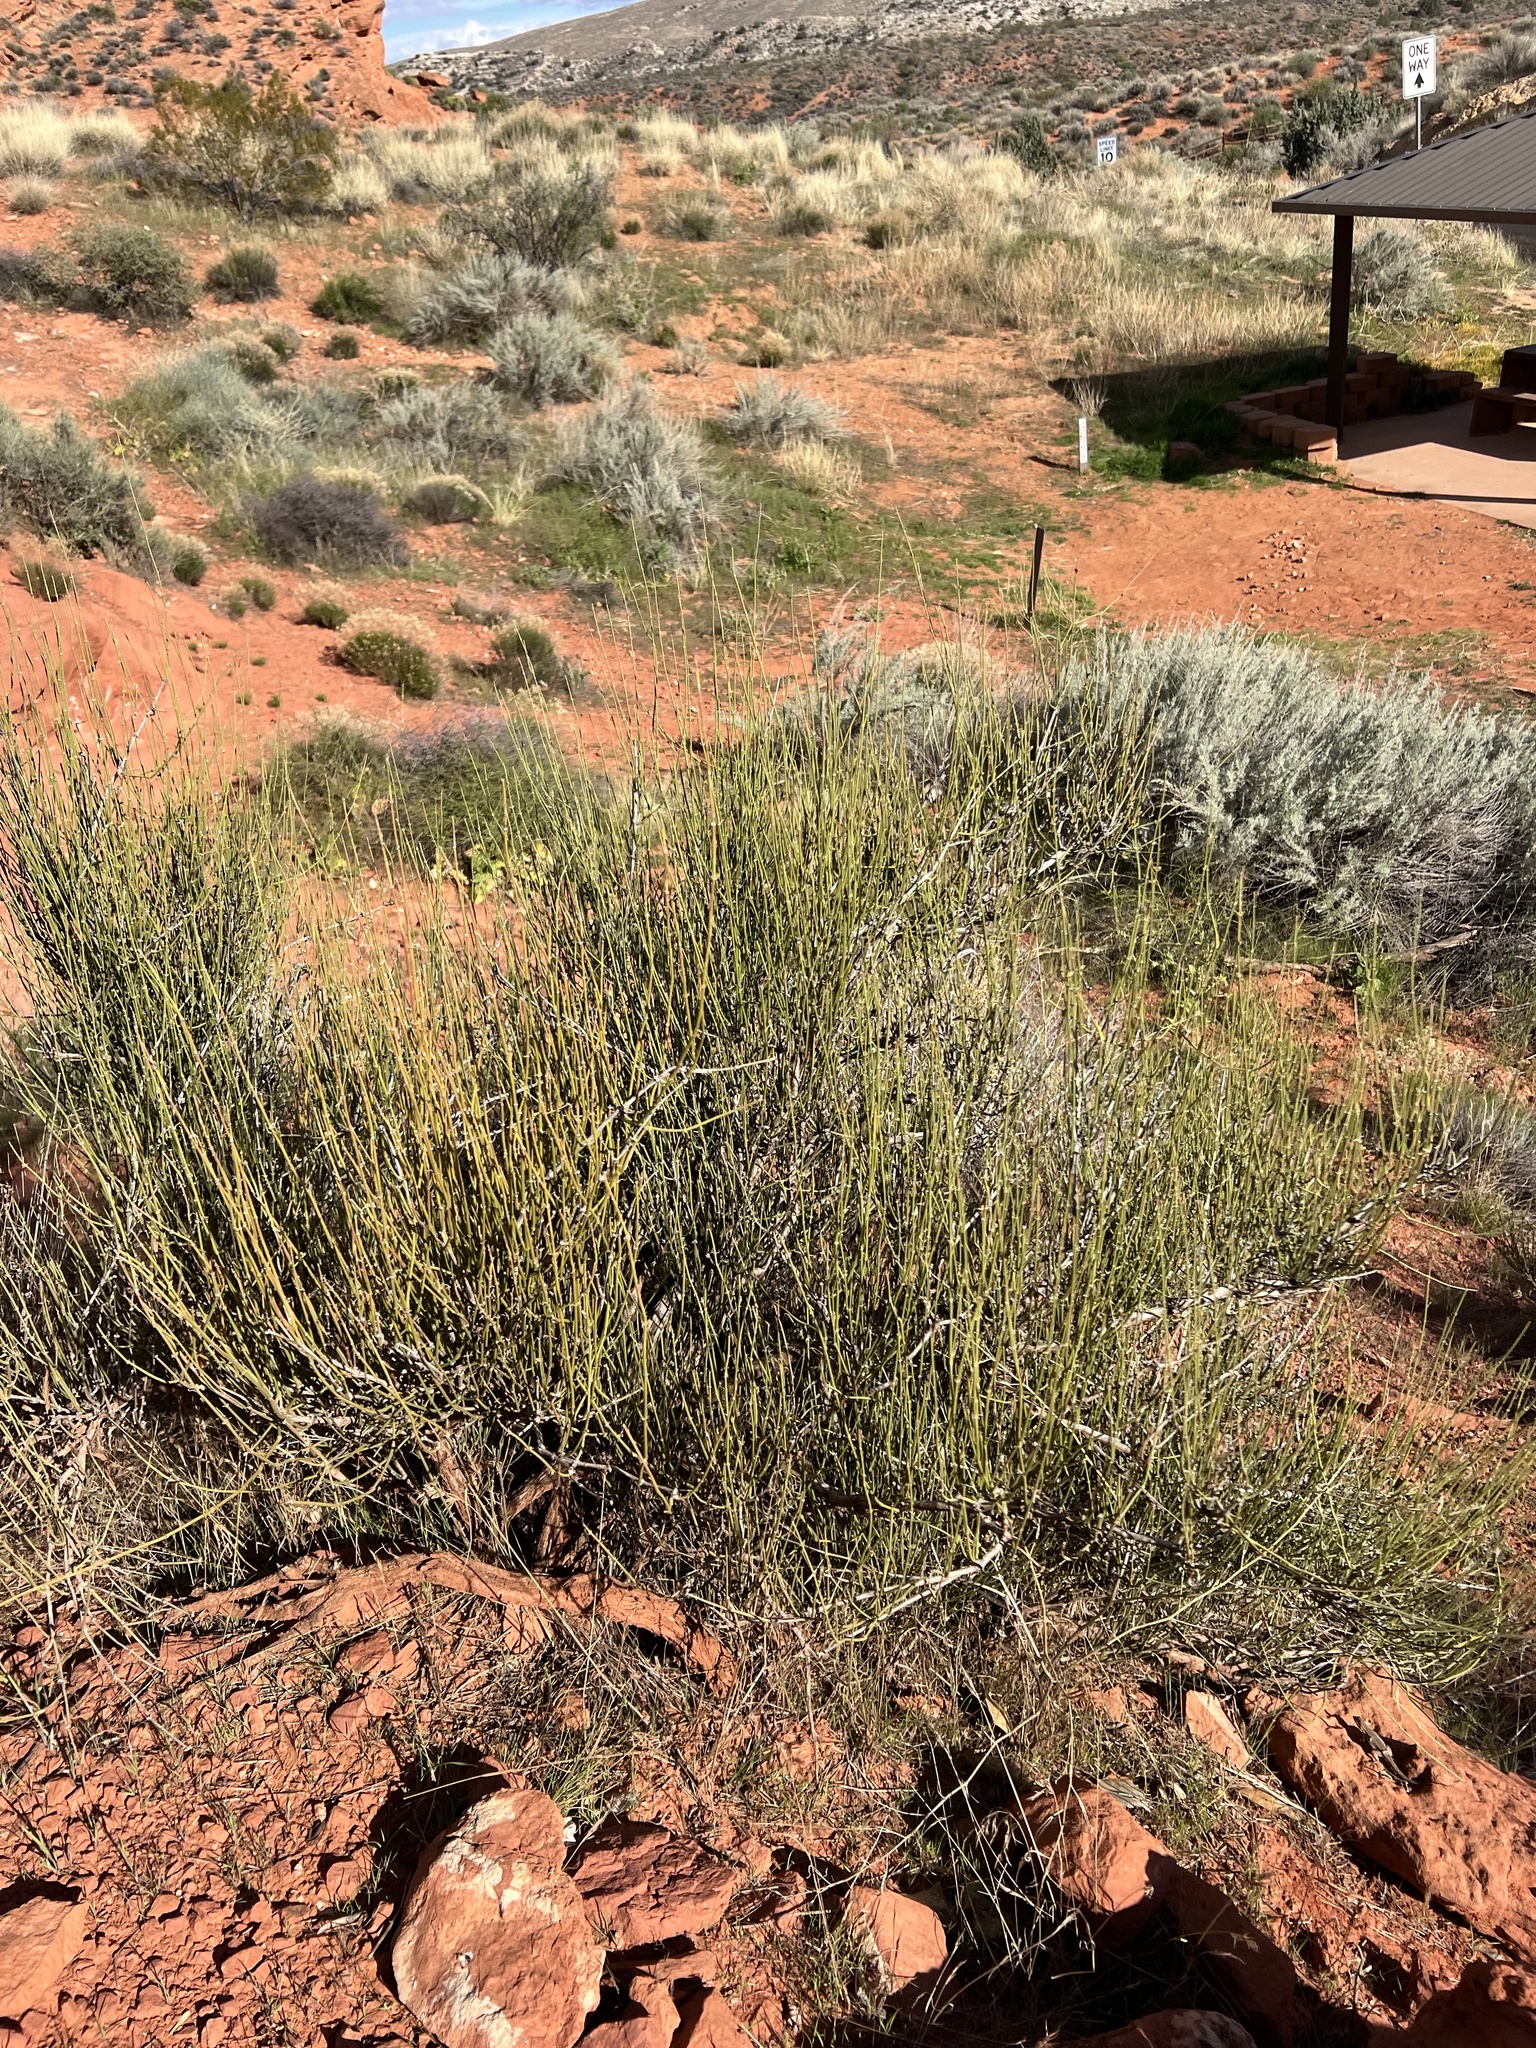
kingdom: Plantae
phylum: Tracheophyta
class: Gnetopsida
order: Ephedrales
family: Ephedraceae
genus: Ephedra
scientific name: Ephedra viridis
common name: Green ephedra
